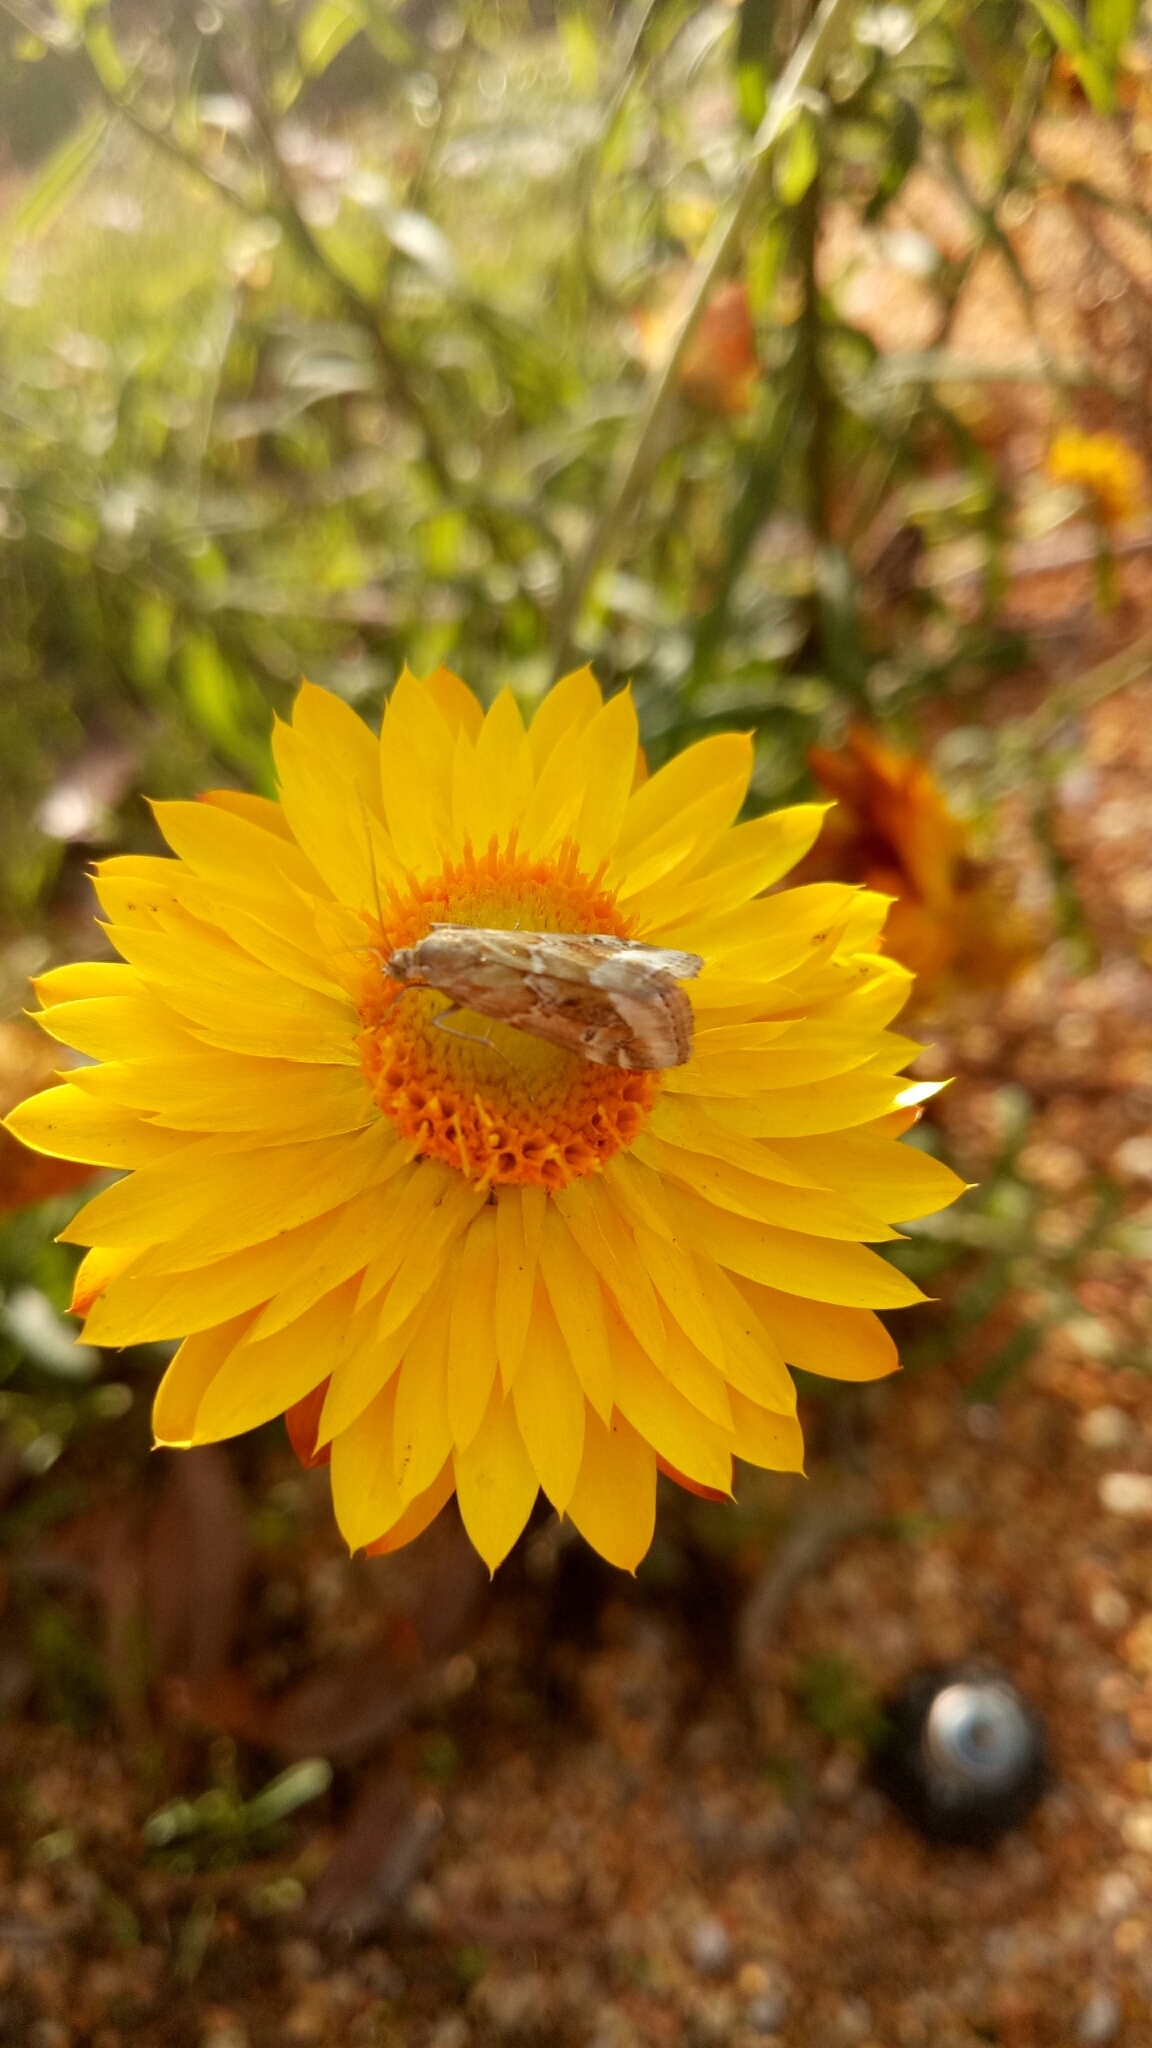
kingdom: Animalia
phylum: Arthropoda
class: Insecta
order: Lepidoptera
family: Crambidae
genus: Hellula
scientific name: Hellula hydralis
